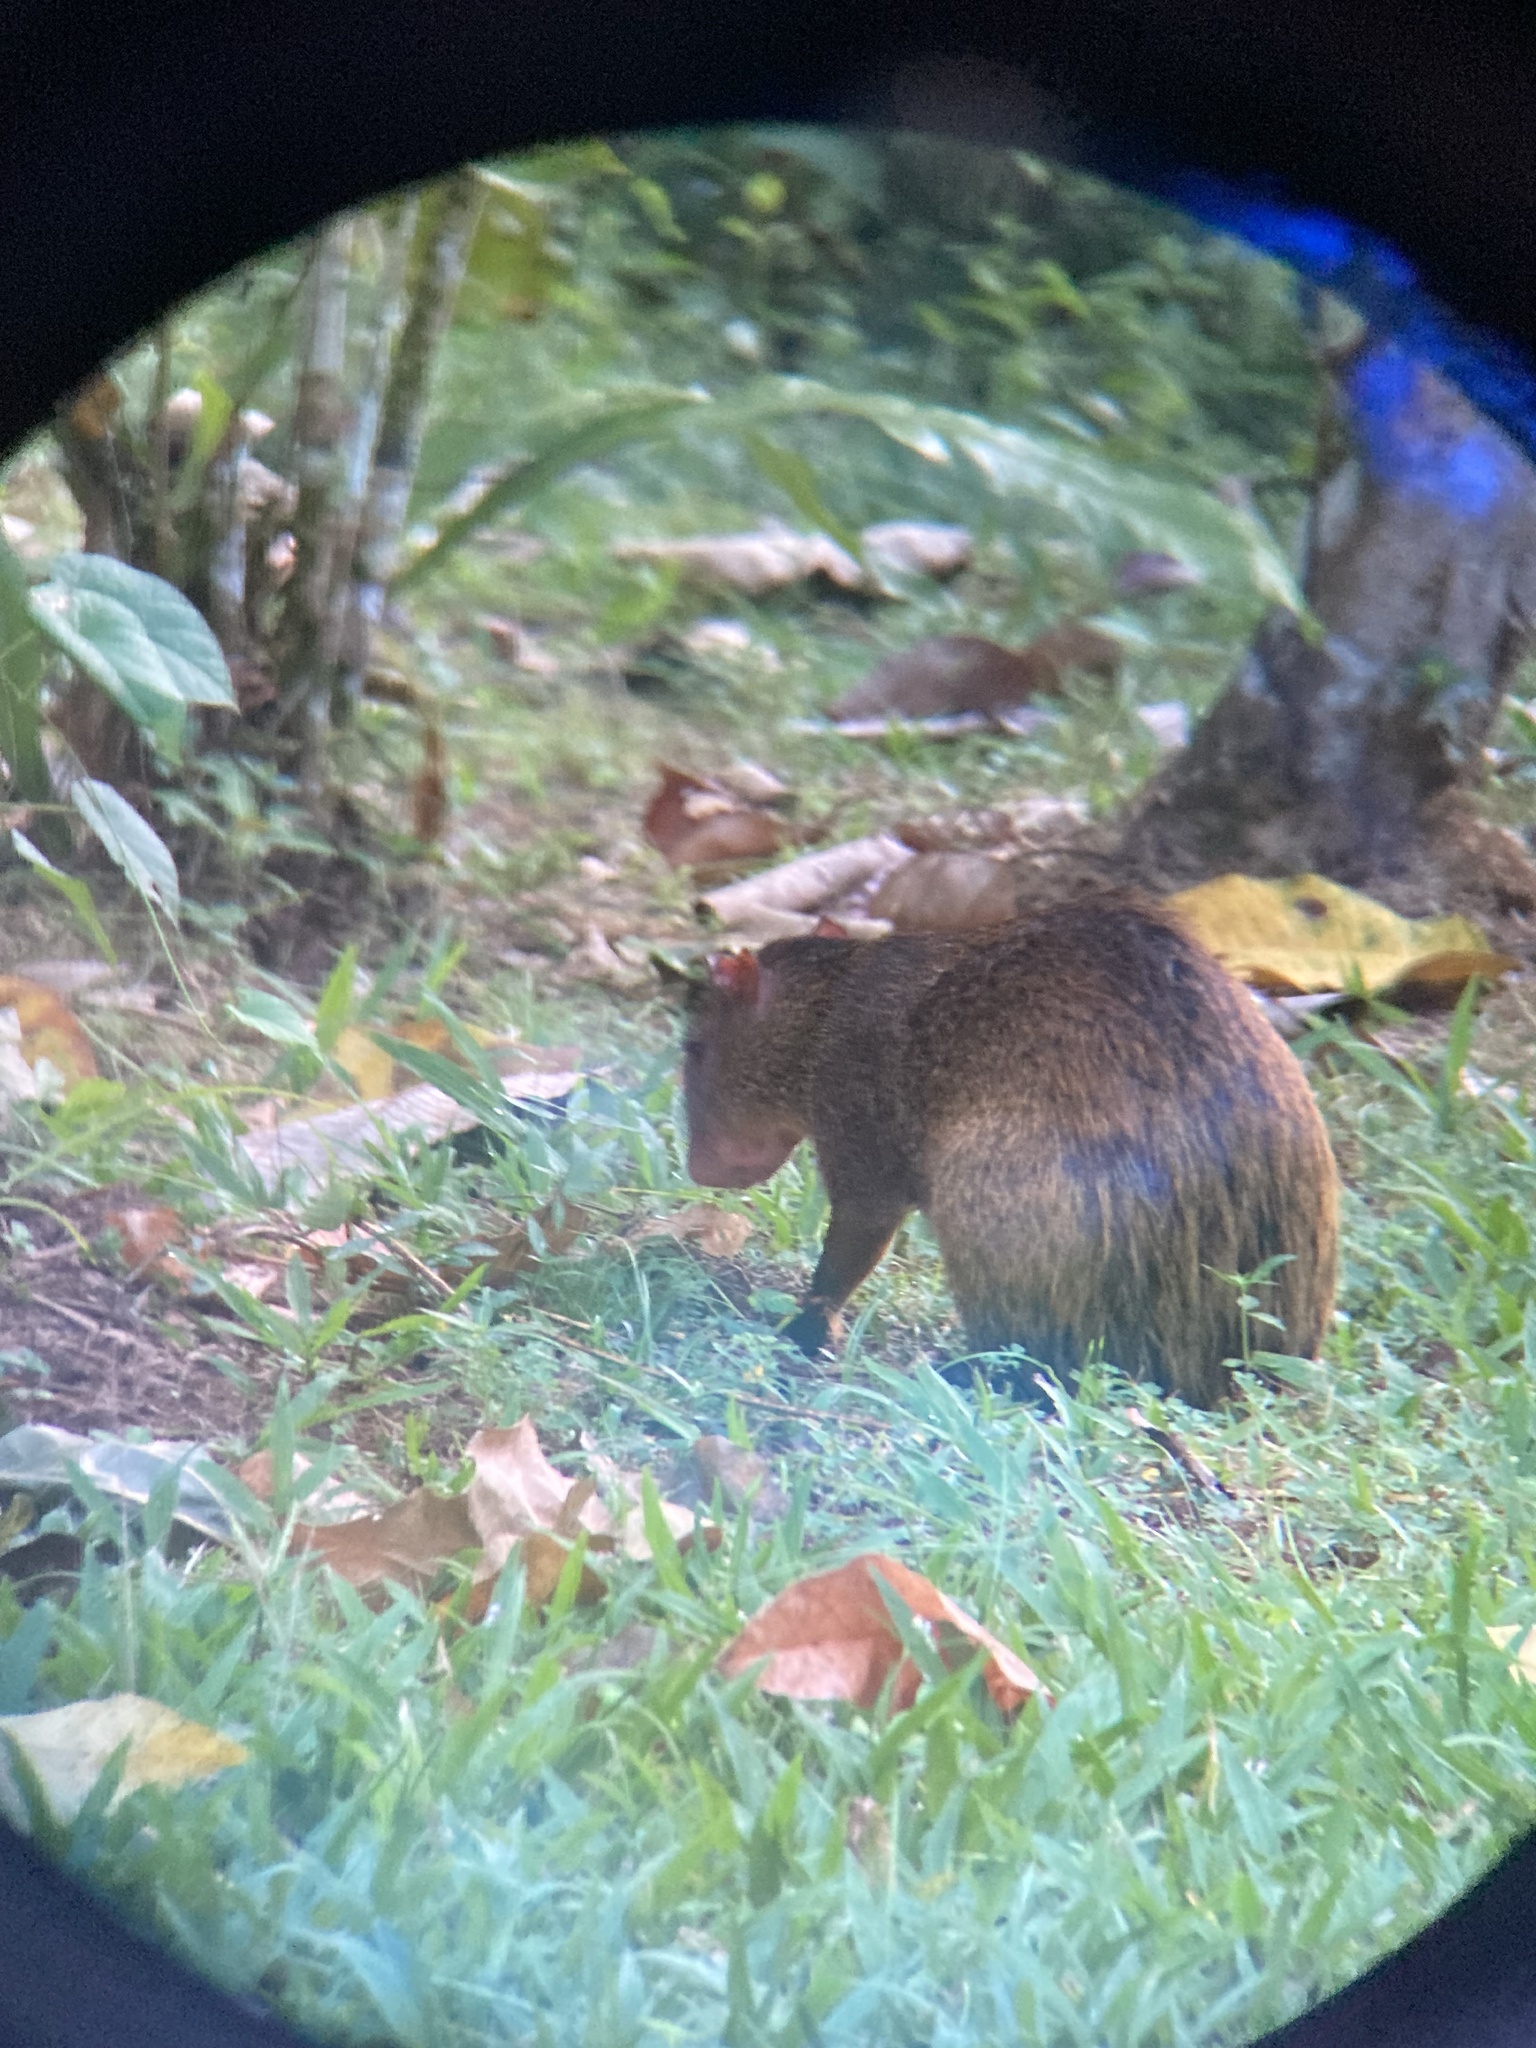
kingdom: Animalia
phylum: Chordata
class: Mammalia
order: Rodentia
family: Dasyproctidae
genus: Dasyprocta
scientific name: Dasyprocta punctata
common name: Central american agouti
